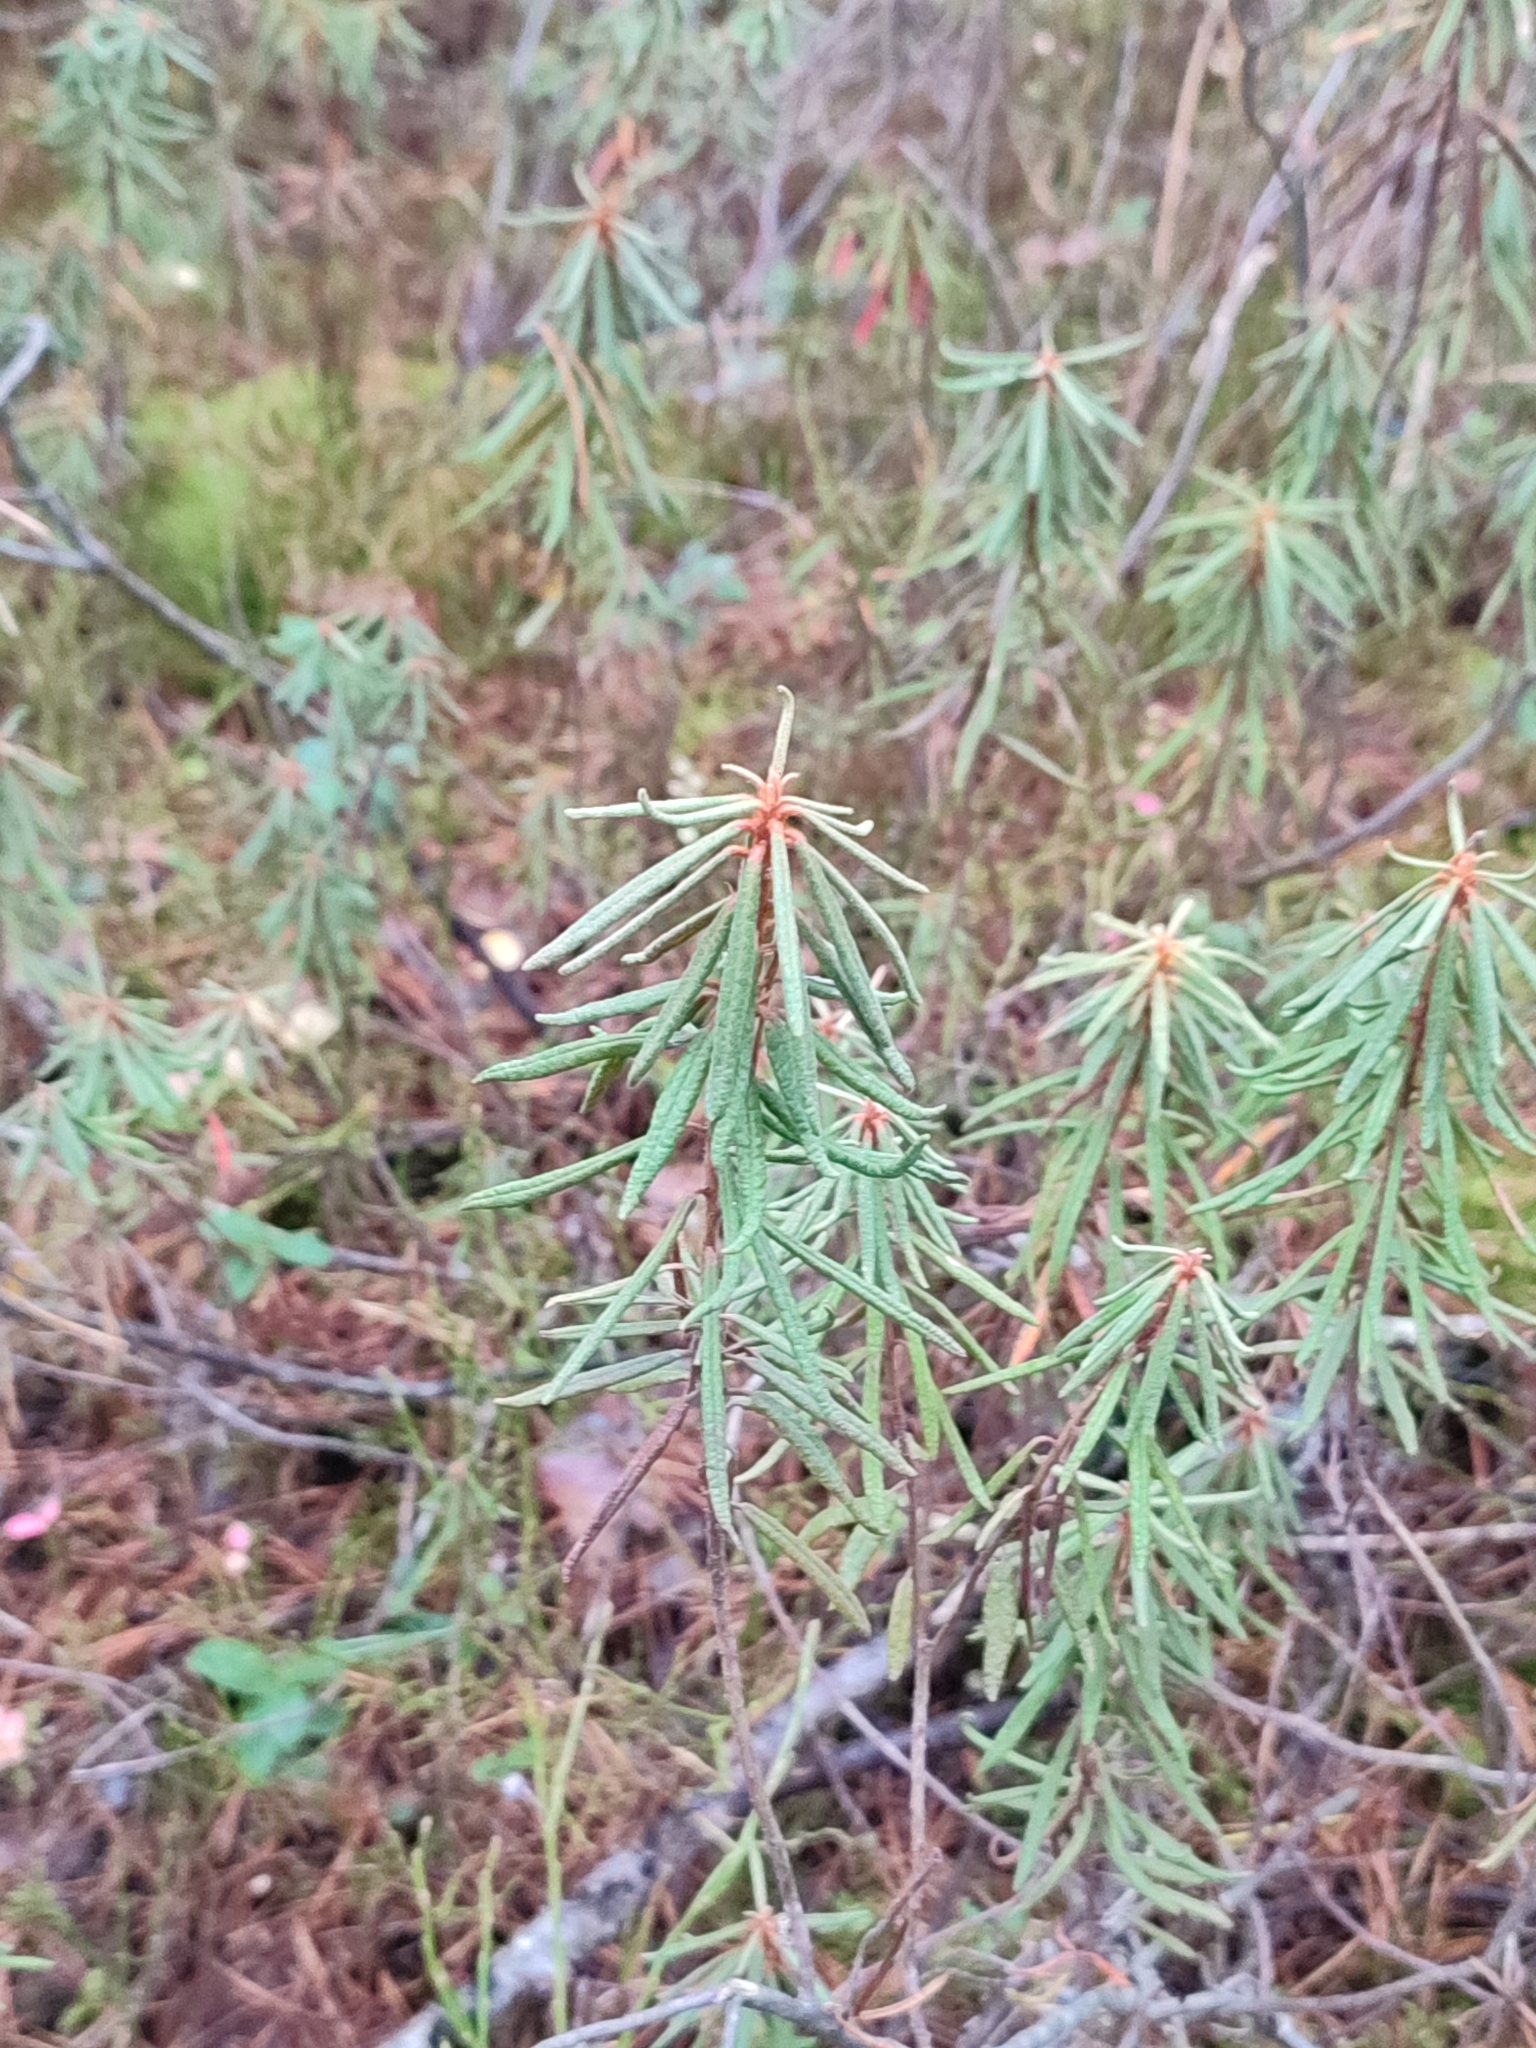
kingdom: Plantae
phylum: Tracheophyta
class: Magnoliopsida
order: Ericales
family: Ericaceae
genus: Rhododendron
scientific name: Rhododendron tomentosum
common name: Marsh labrador tea
